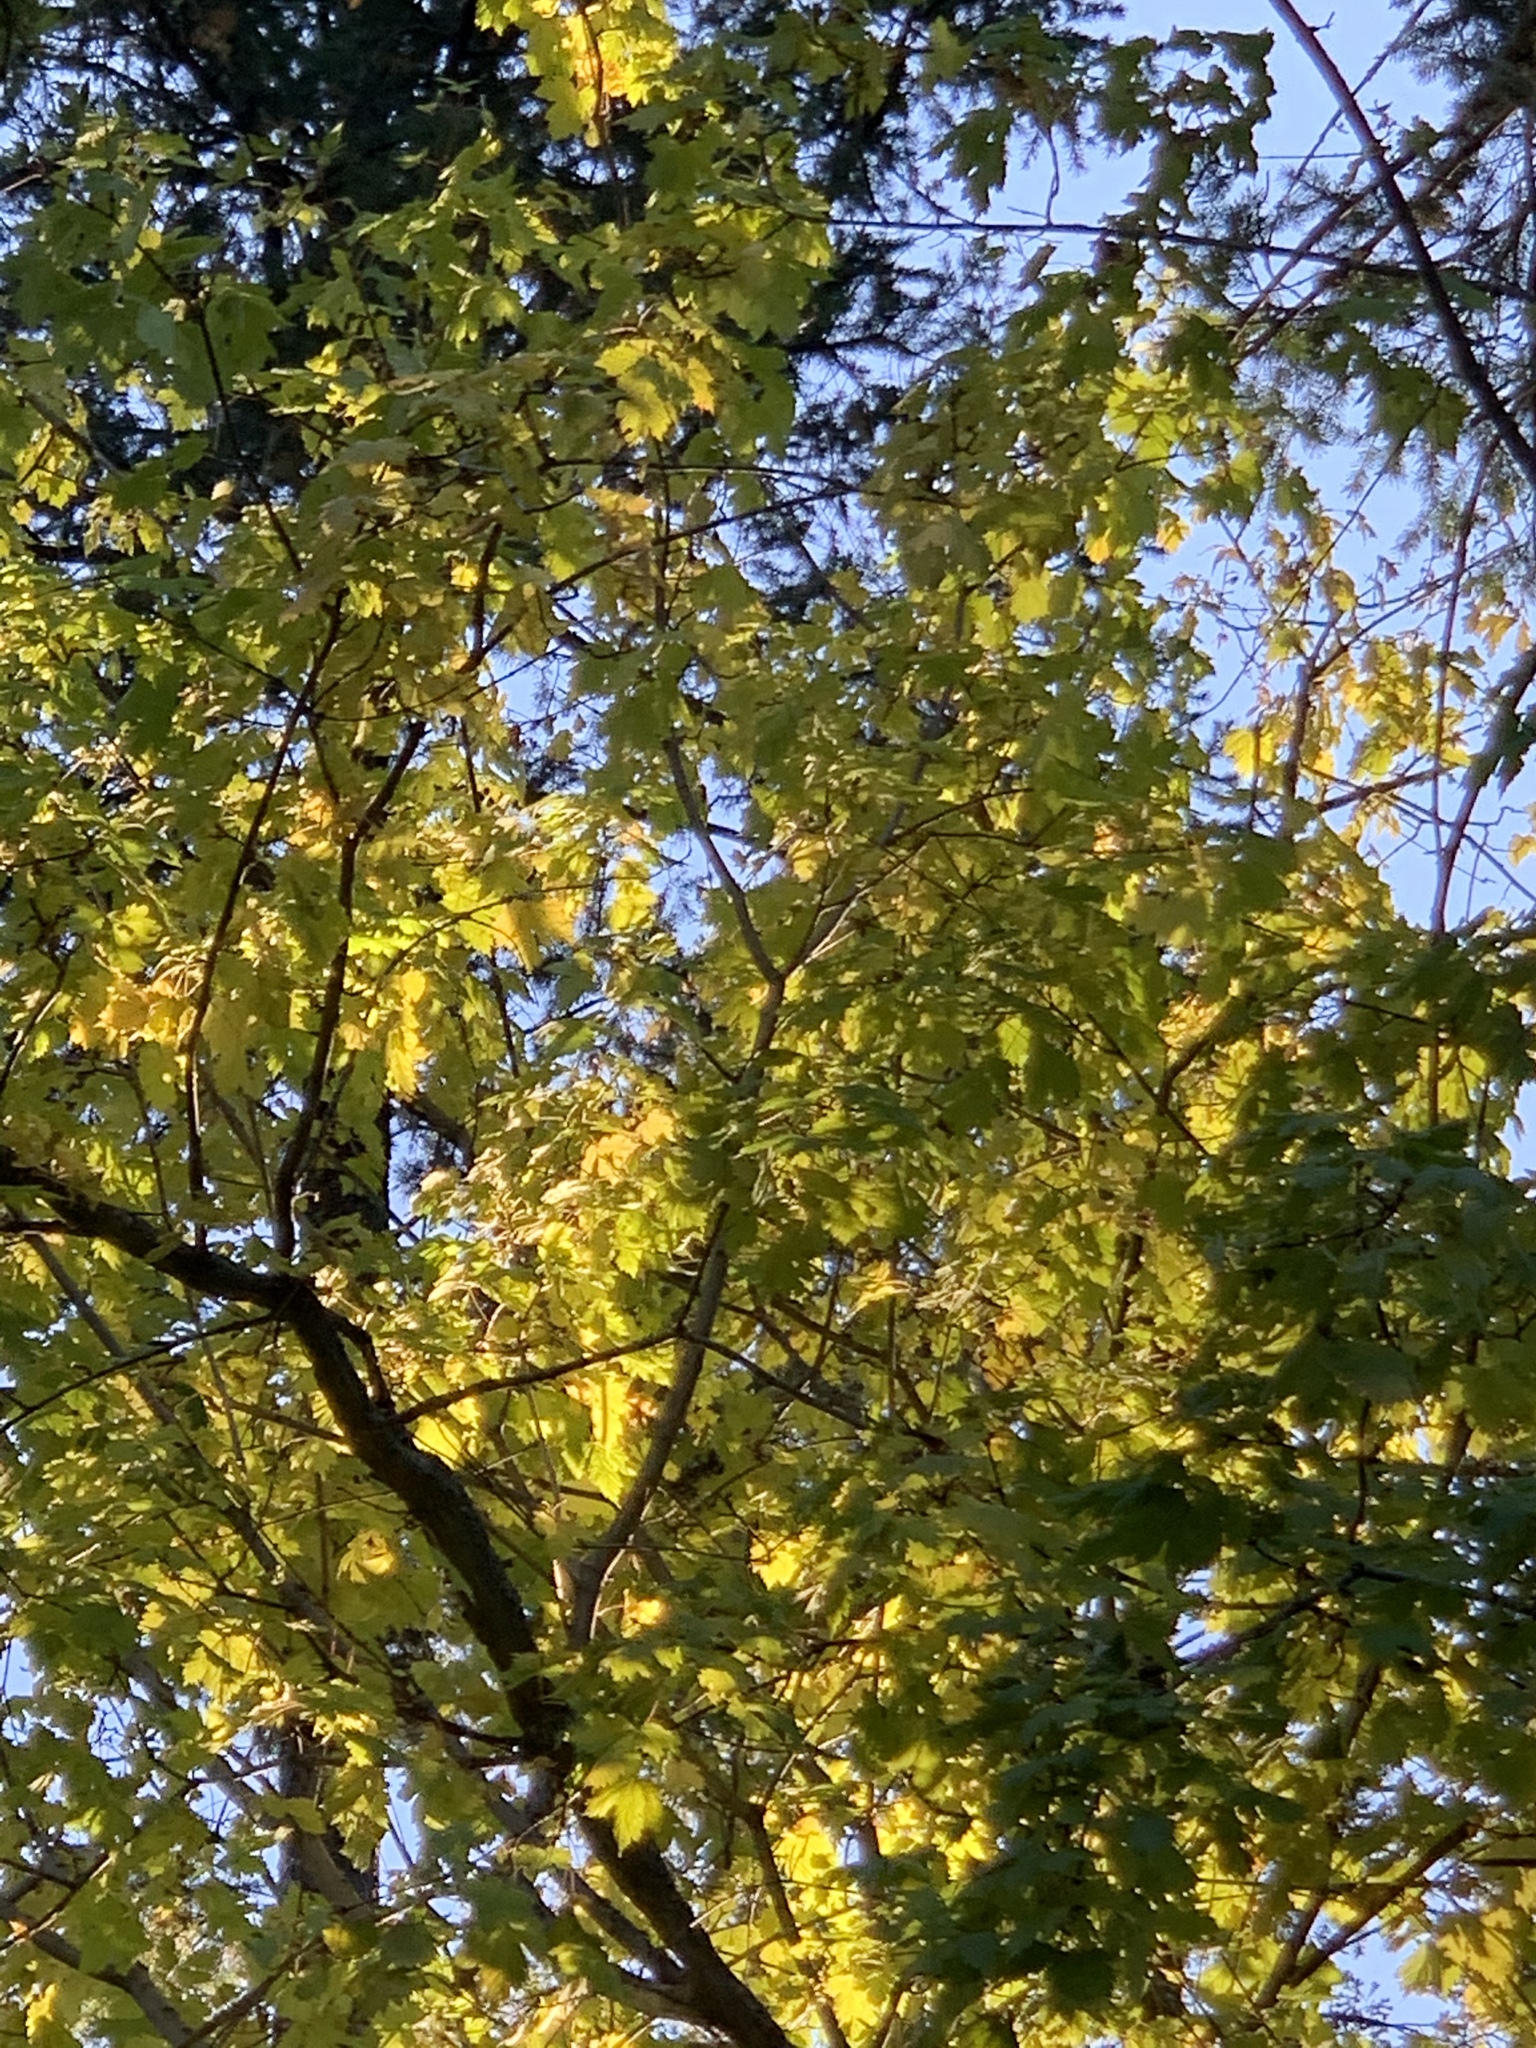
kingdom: Plantae
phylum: Tracheophyta
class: Magnoliopsida
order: Sapindales
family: Sapindaceae
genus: Acer
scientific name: Acer glabrum
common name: Rocky mountain maple
